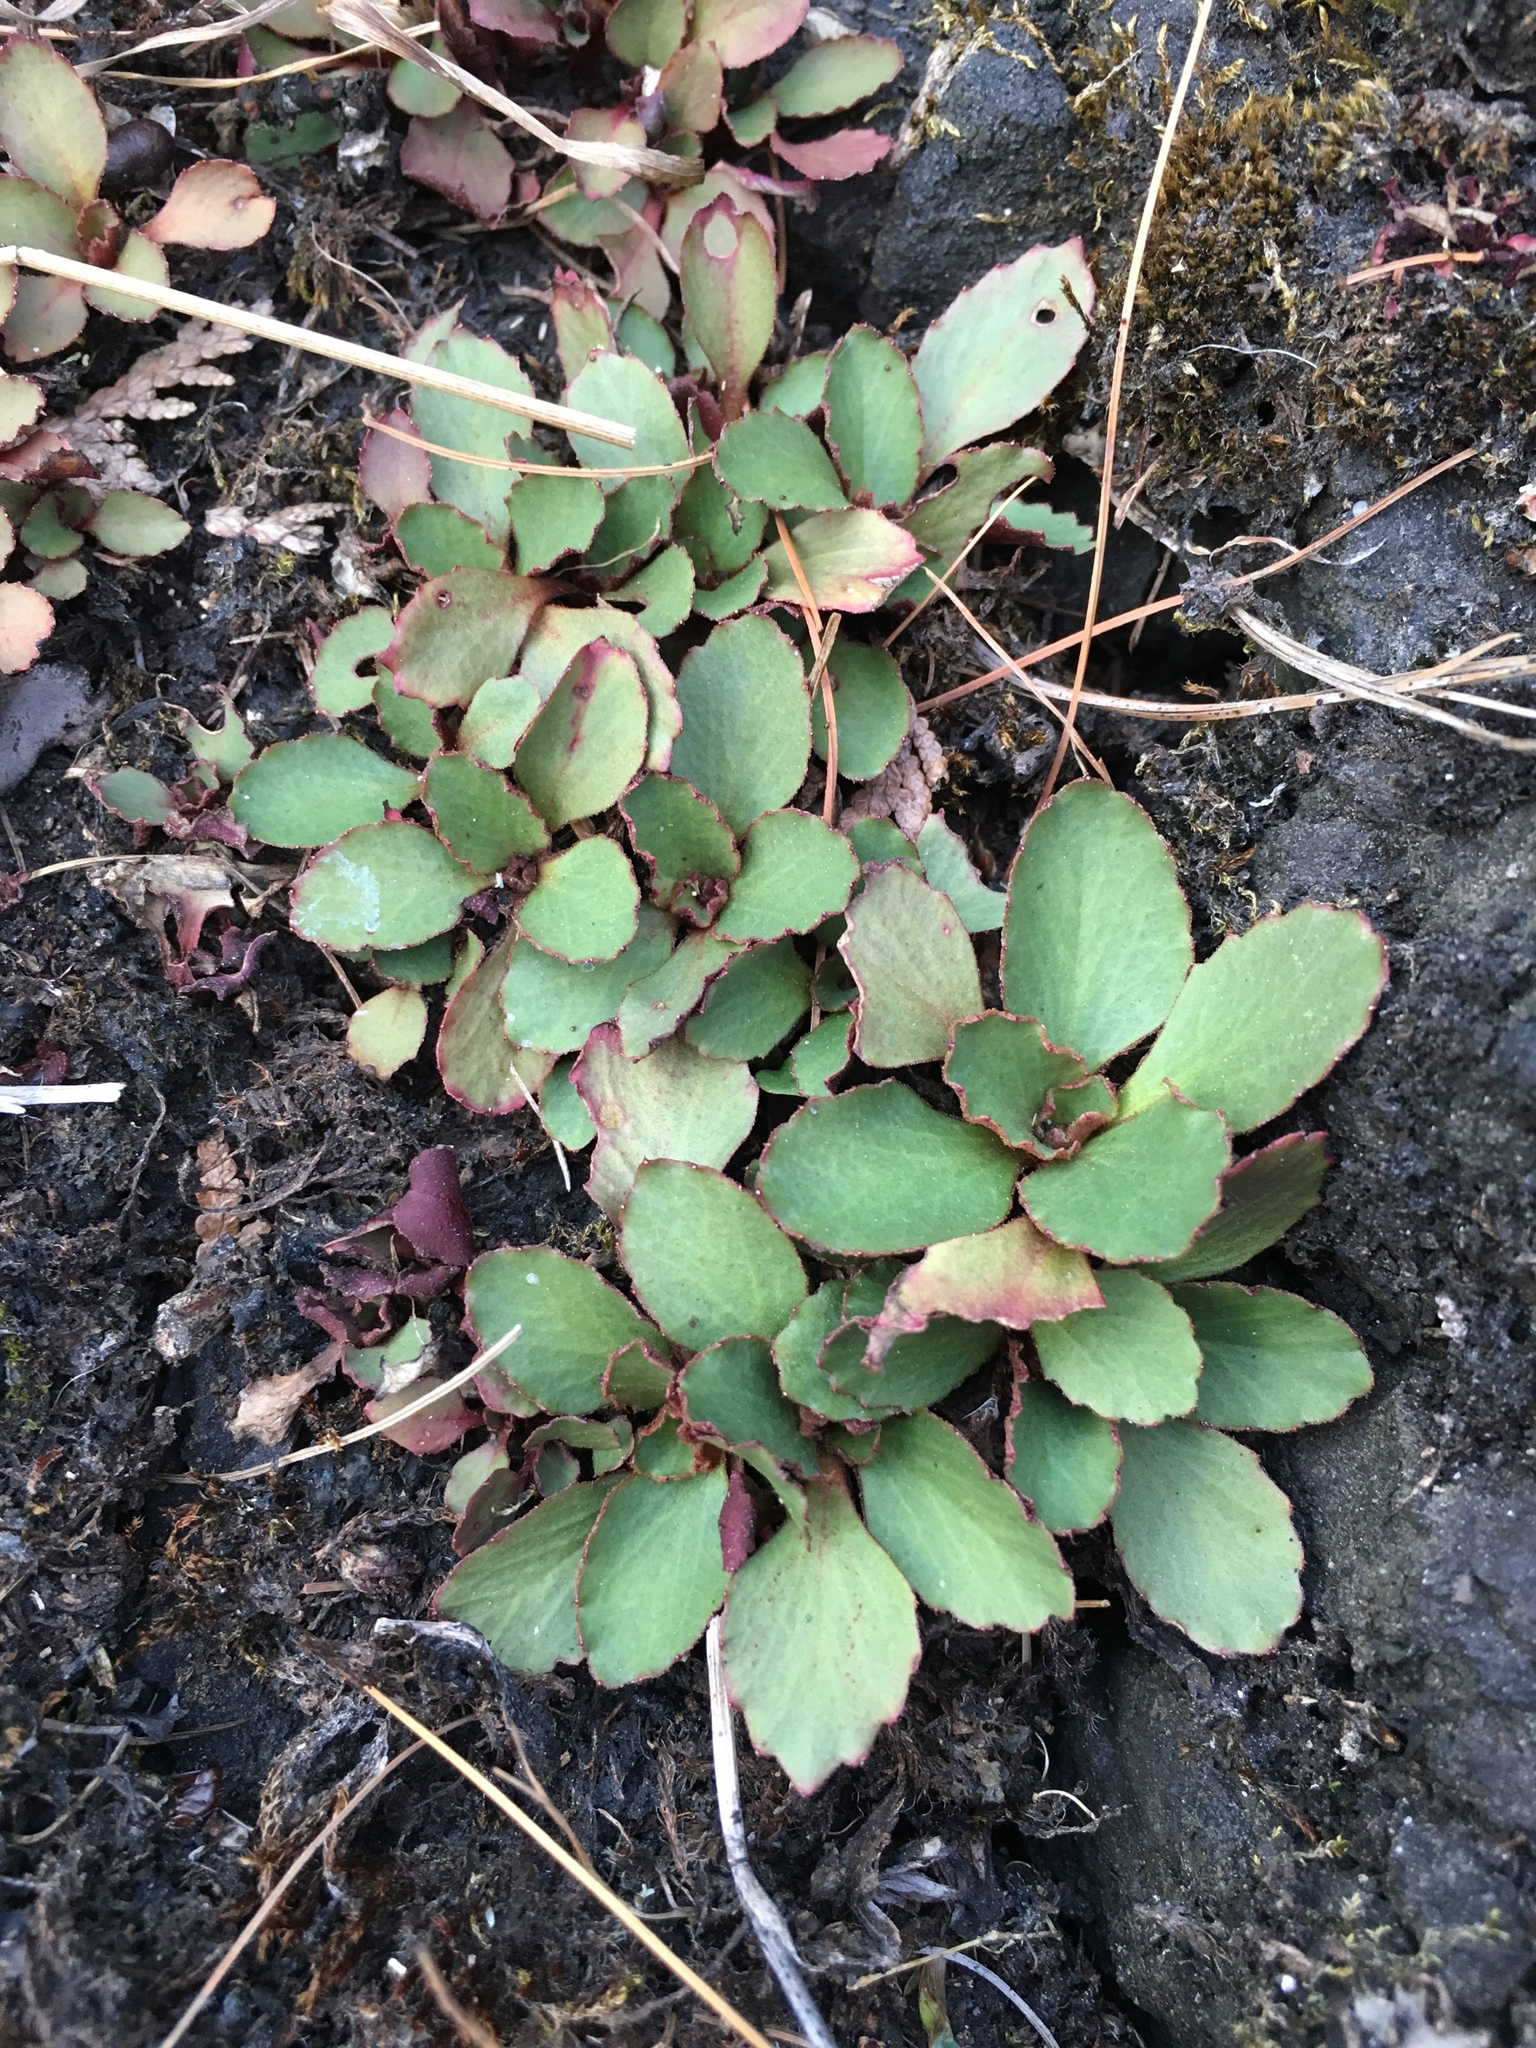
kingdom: Plantae
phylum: Tracheophyta
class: Magnoliopsida
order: Saxifragales
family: Saxifragaceae
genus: Micranthes
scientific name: Micranthes virginiensis
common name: Early saxifrage
